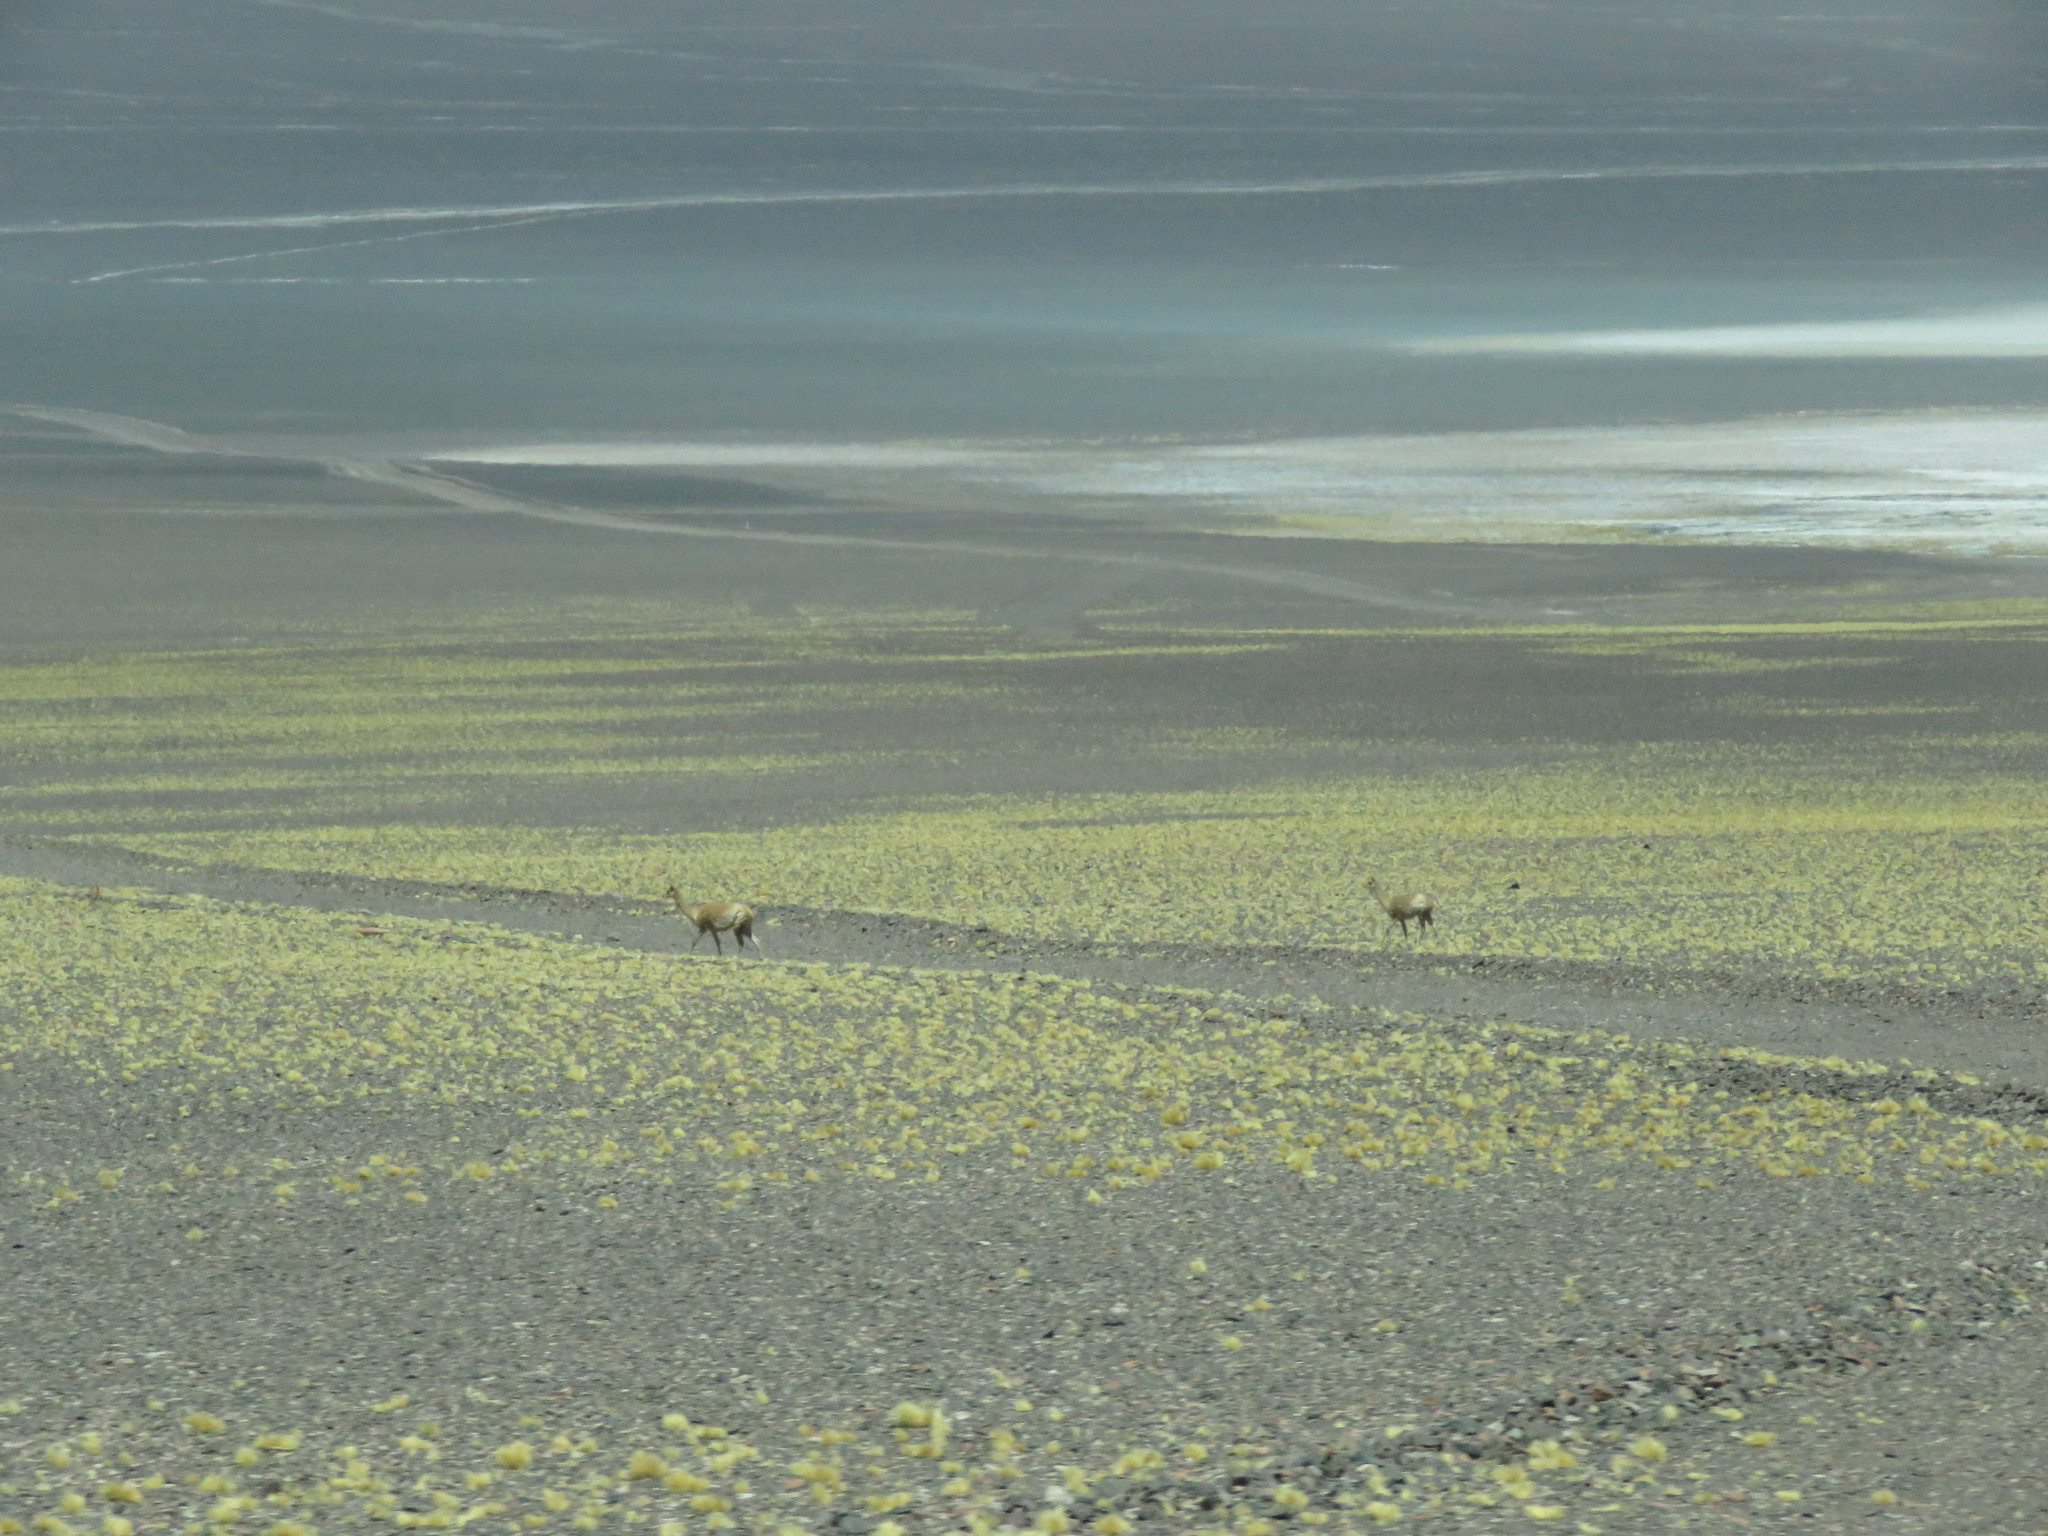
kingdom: Animalia
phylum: Chordata
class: Mammalia
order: Artiodactyla
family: Camelidae
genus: Vicugna
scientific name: Vicugna vicugna
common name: Vicugna
